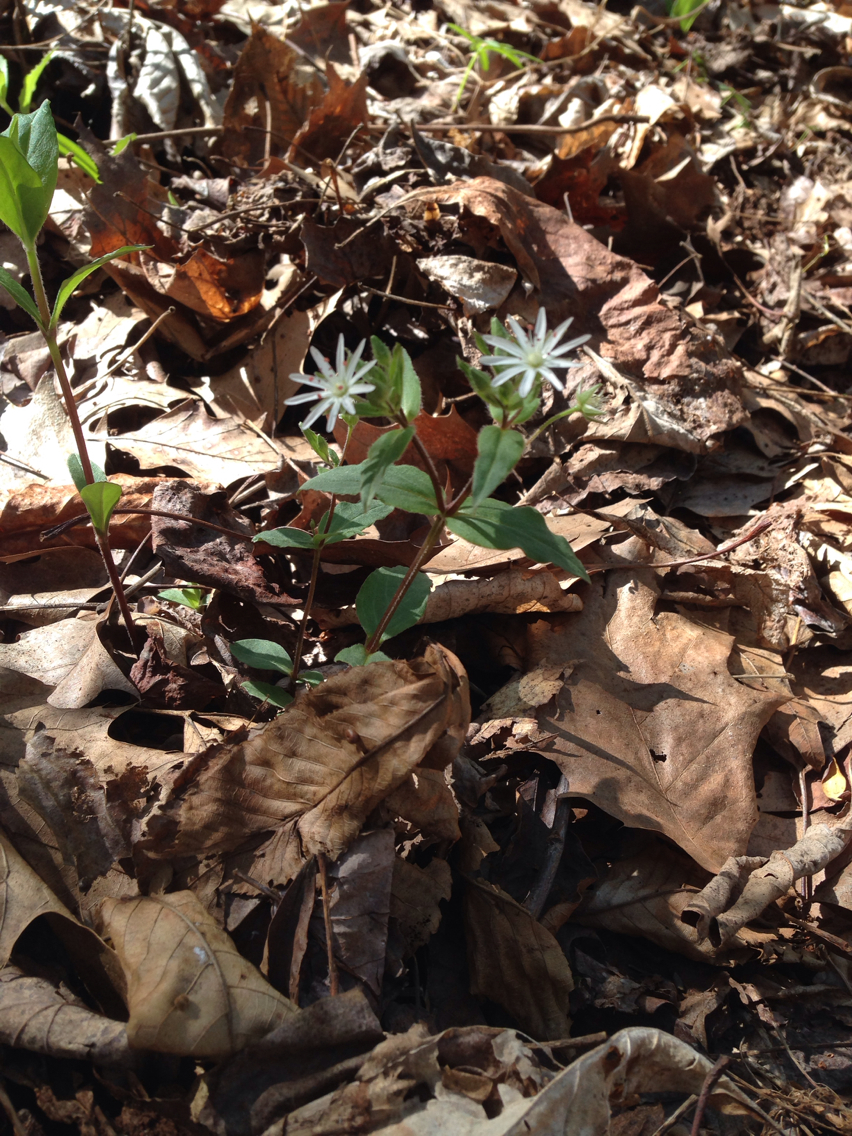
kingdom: Plantae
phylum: Tracheophyta
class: Magnoliopsida
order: Caryophyllales
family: Caryophyllaceae
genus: Stellaria
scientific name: Stellaria pubera
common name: Star chickweed
